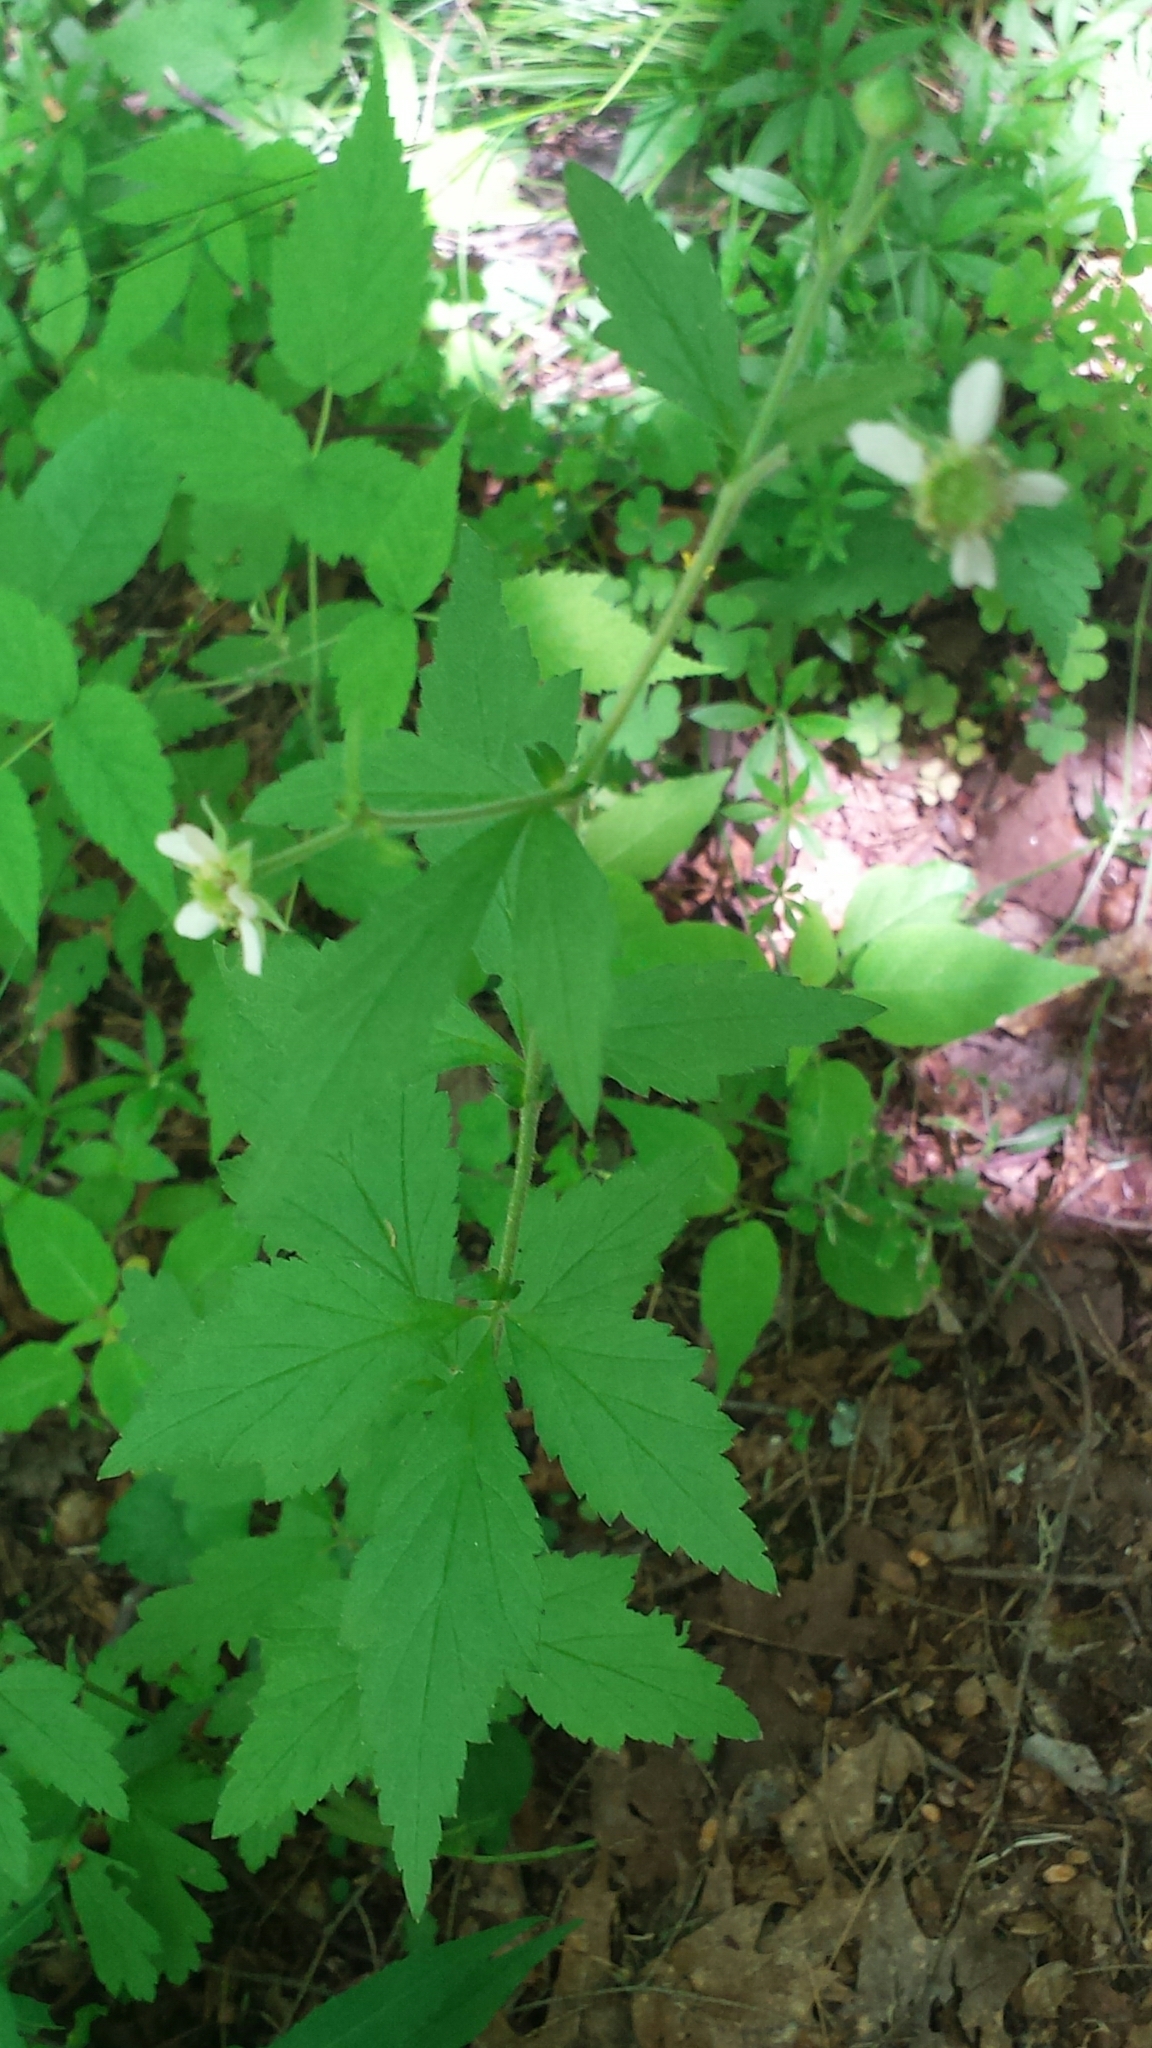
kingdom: Plantae
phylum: Tracheophyta
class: Magnoliopsida
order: Rosales
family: Rosaceae
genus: Geum
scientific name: Geum canadense
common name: White avens
